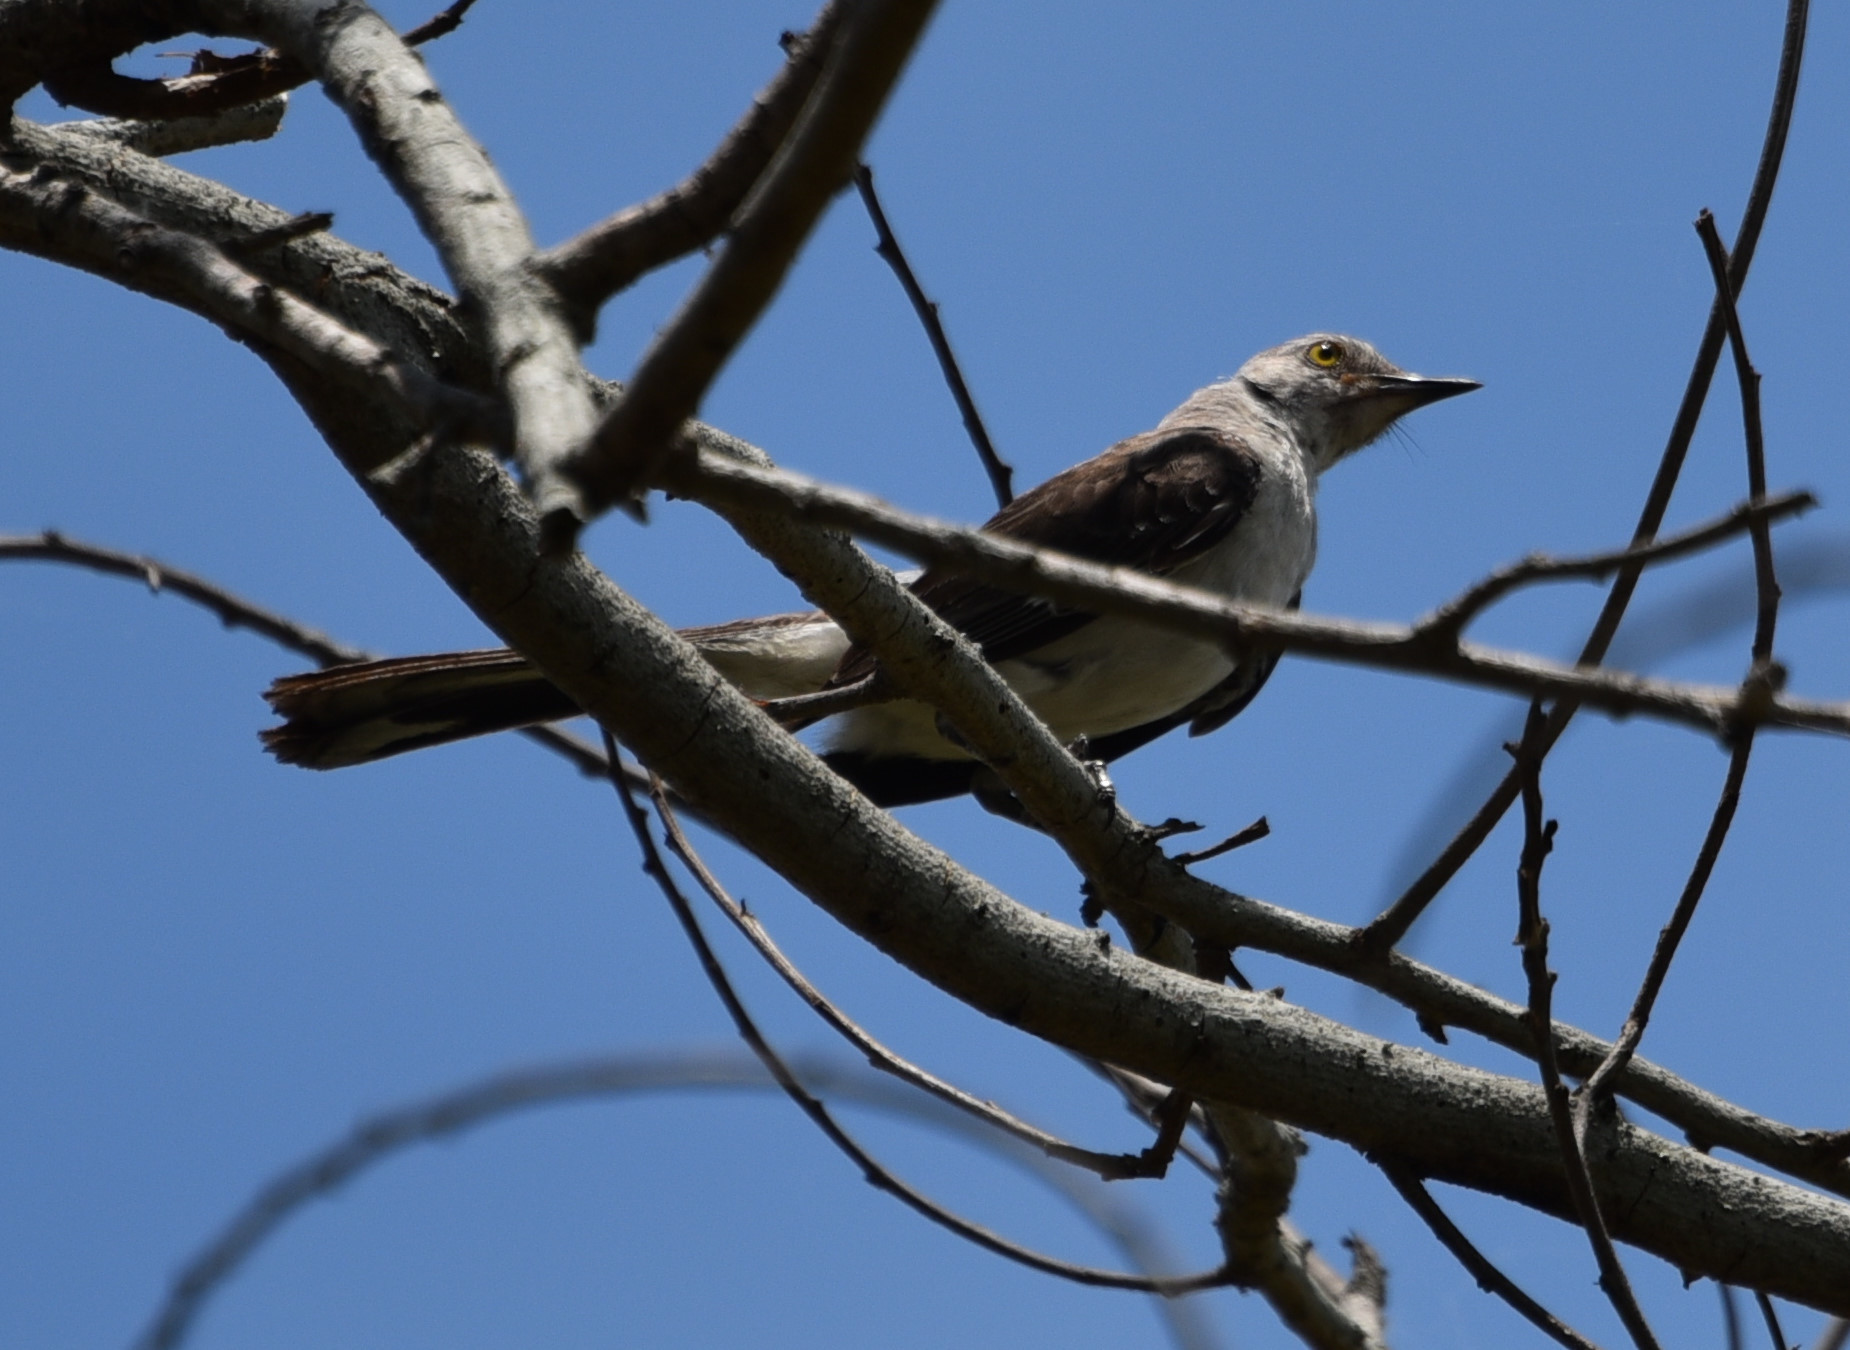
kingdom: Animalia
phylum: Chordata
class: Aves
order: Passeriformes
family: Mimidae
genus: Mimus
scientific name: Mimus polyglottos
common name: Northern mockingbird
